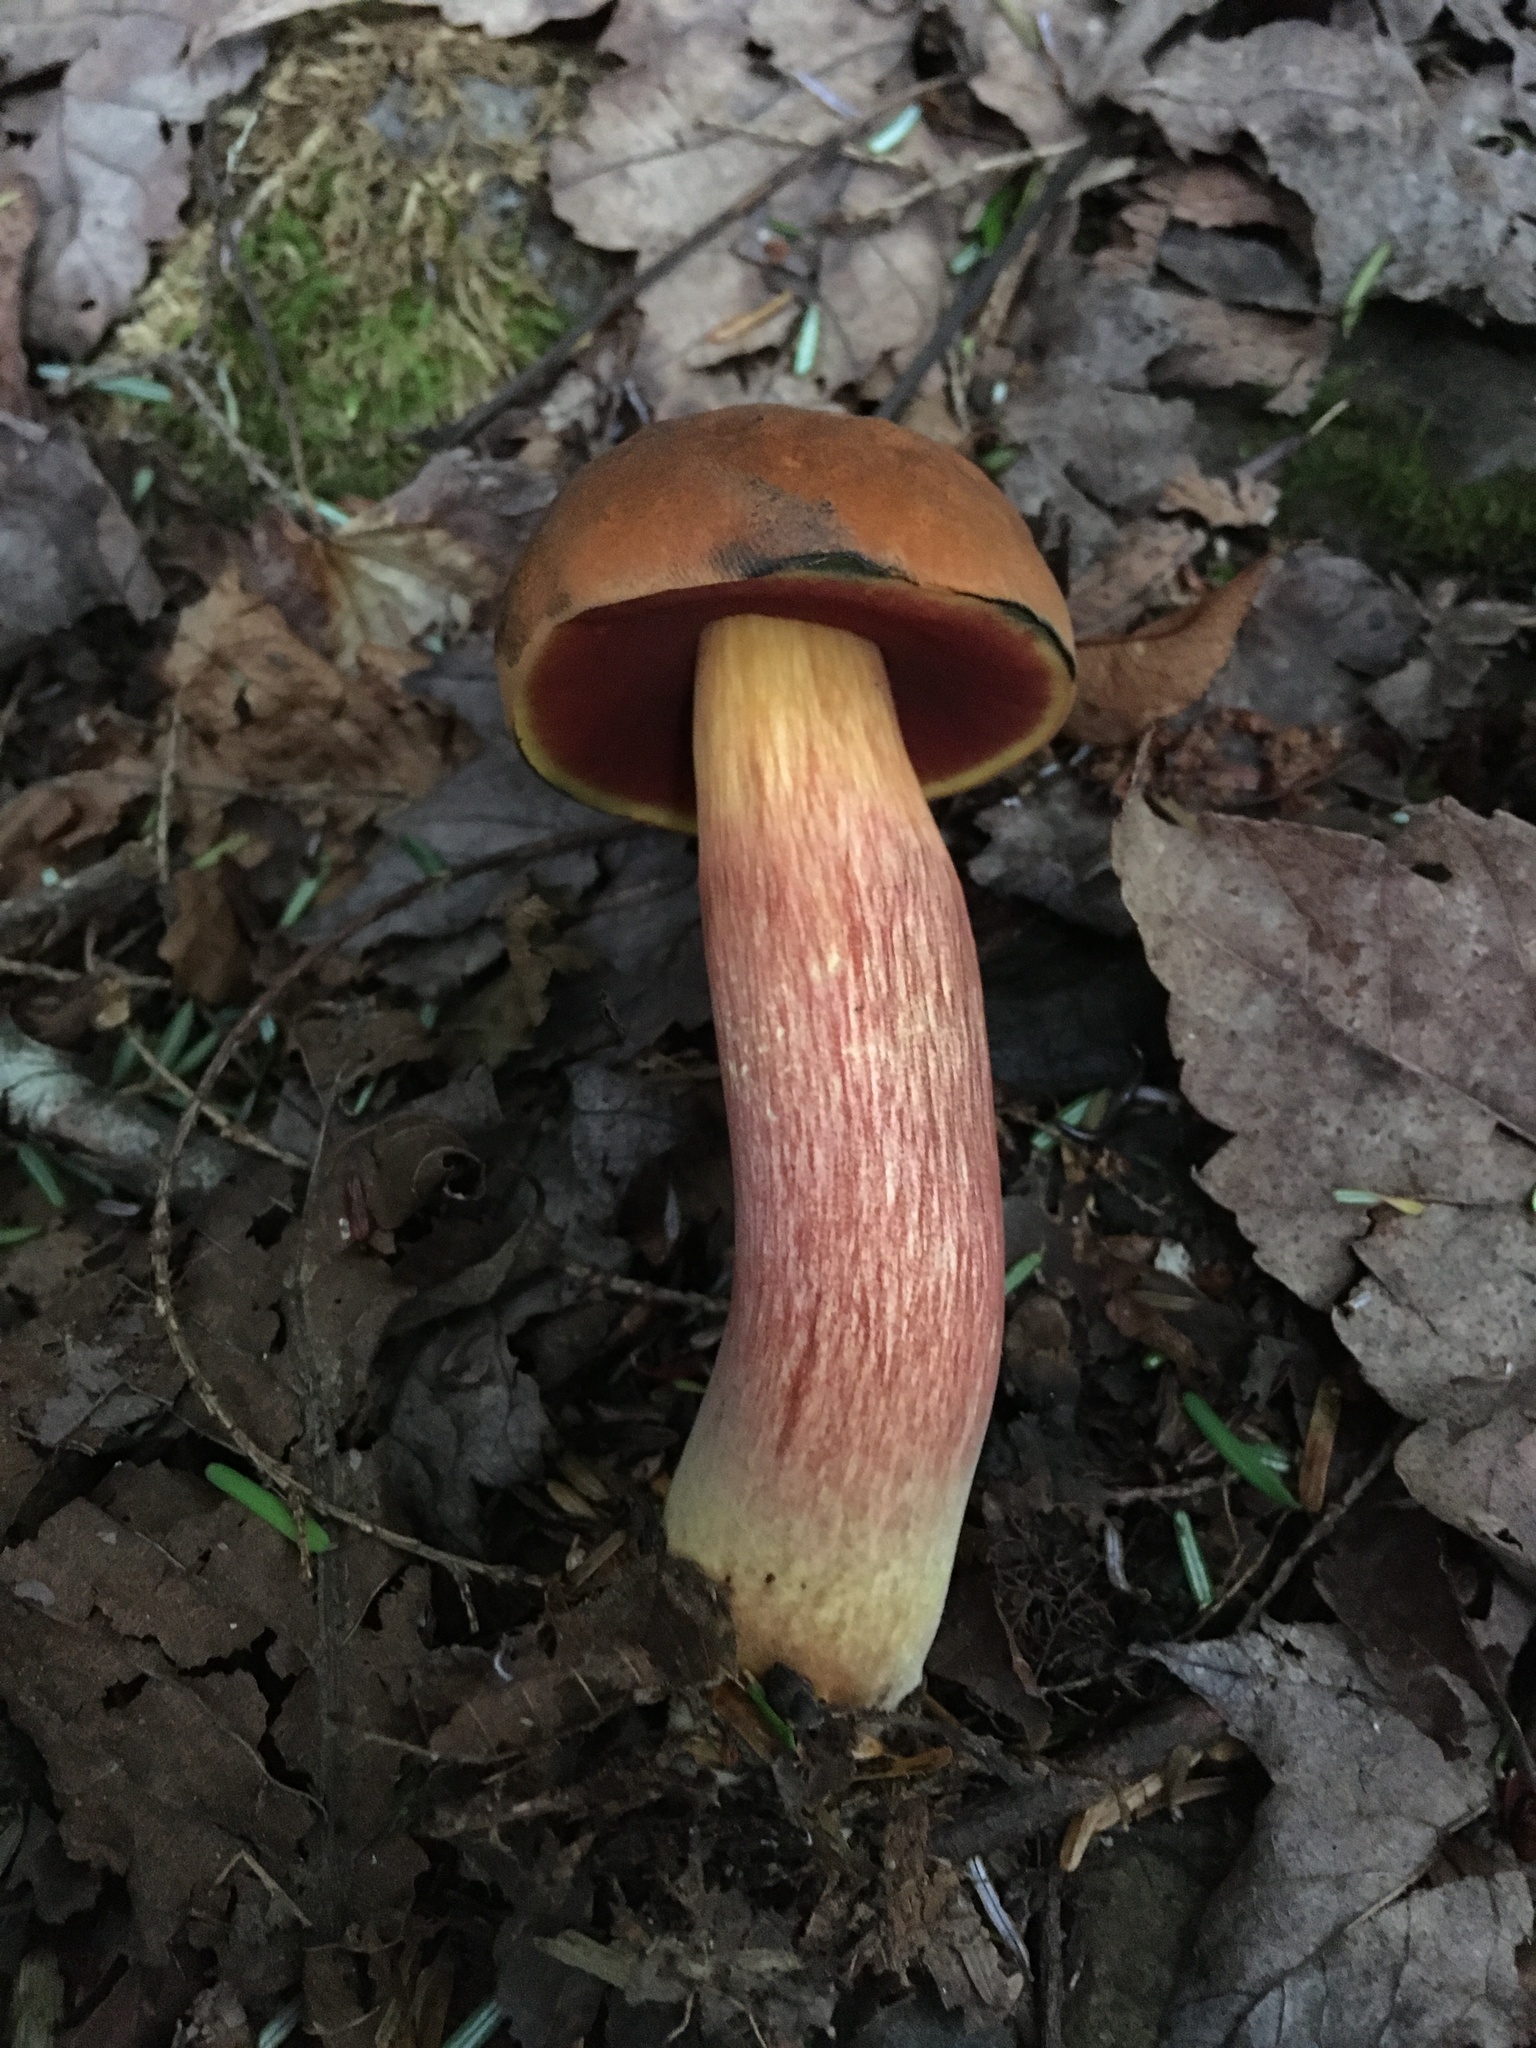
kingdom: Fungi
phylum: Basidiomycota
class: Agaricomycetes
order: Boletales
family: Boletaceae
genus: Boletus
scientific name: Boletus subvelutipes
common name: Red-mouth bolete
